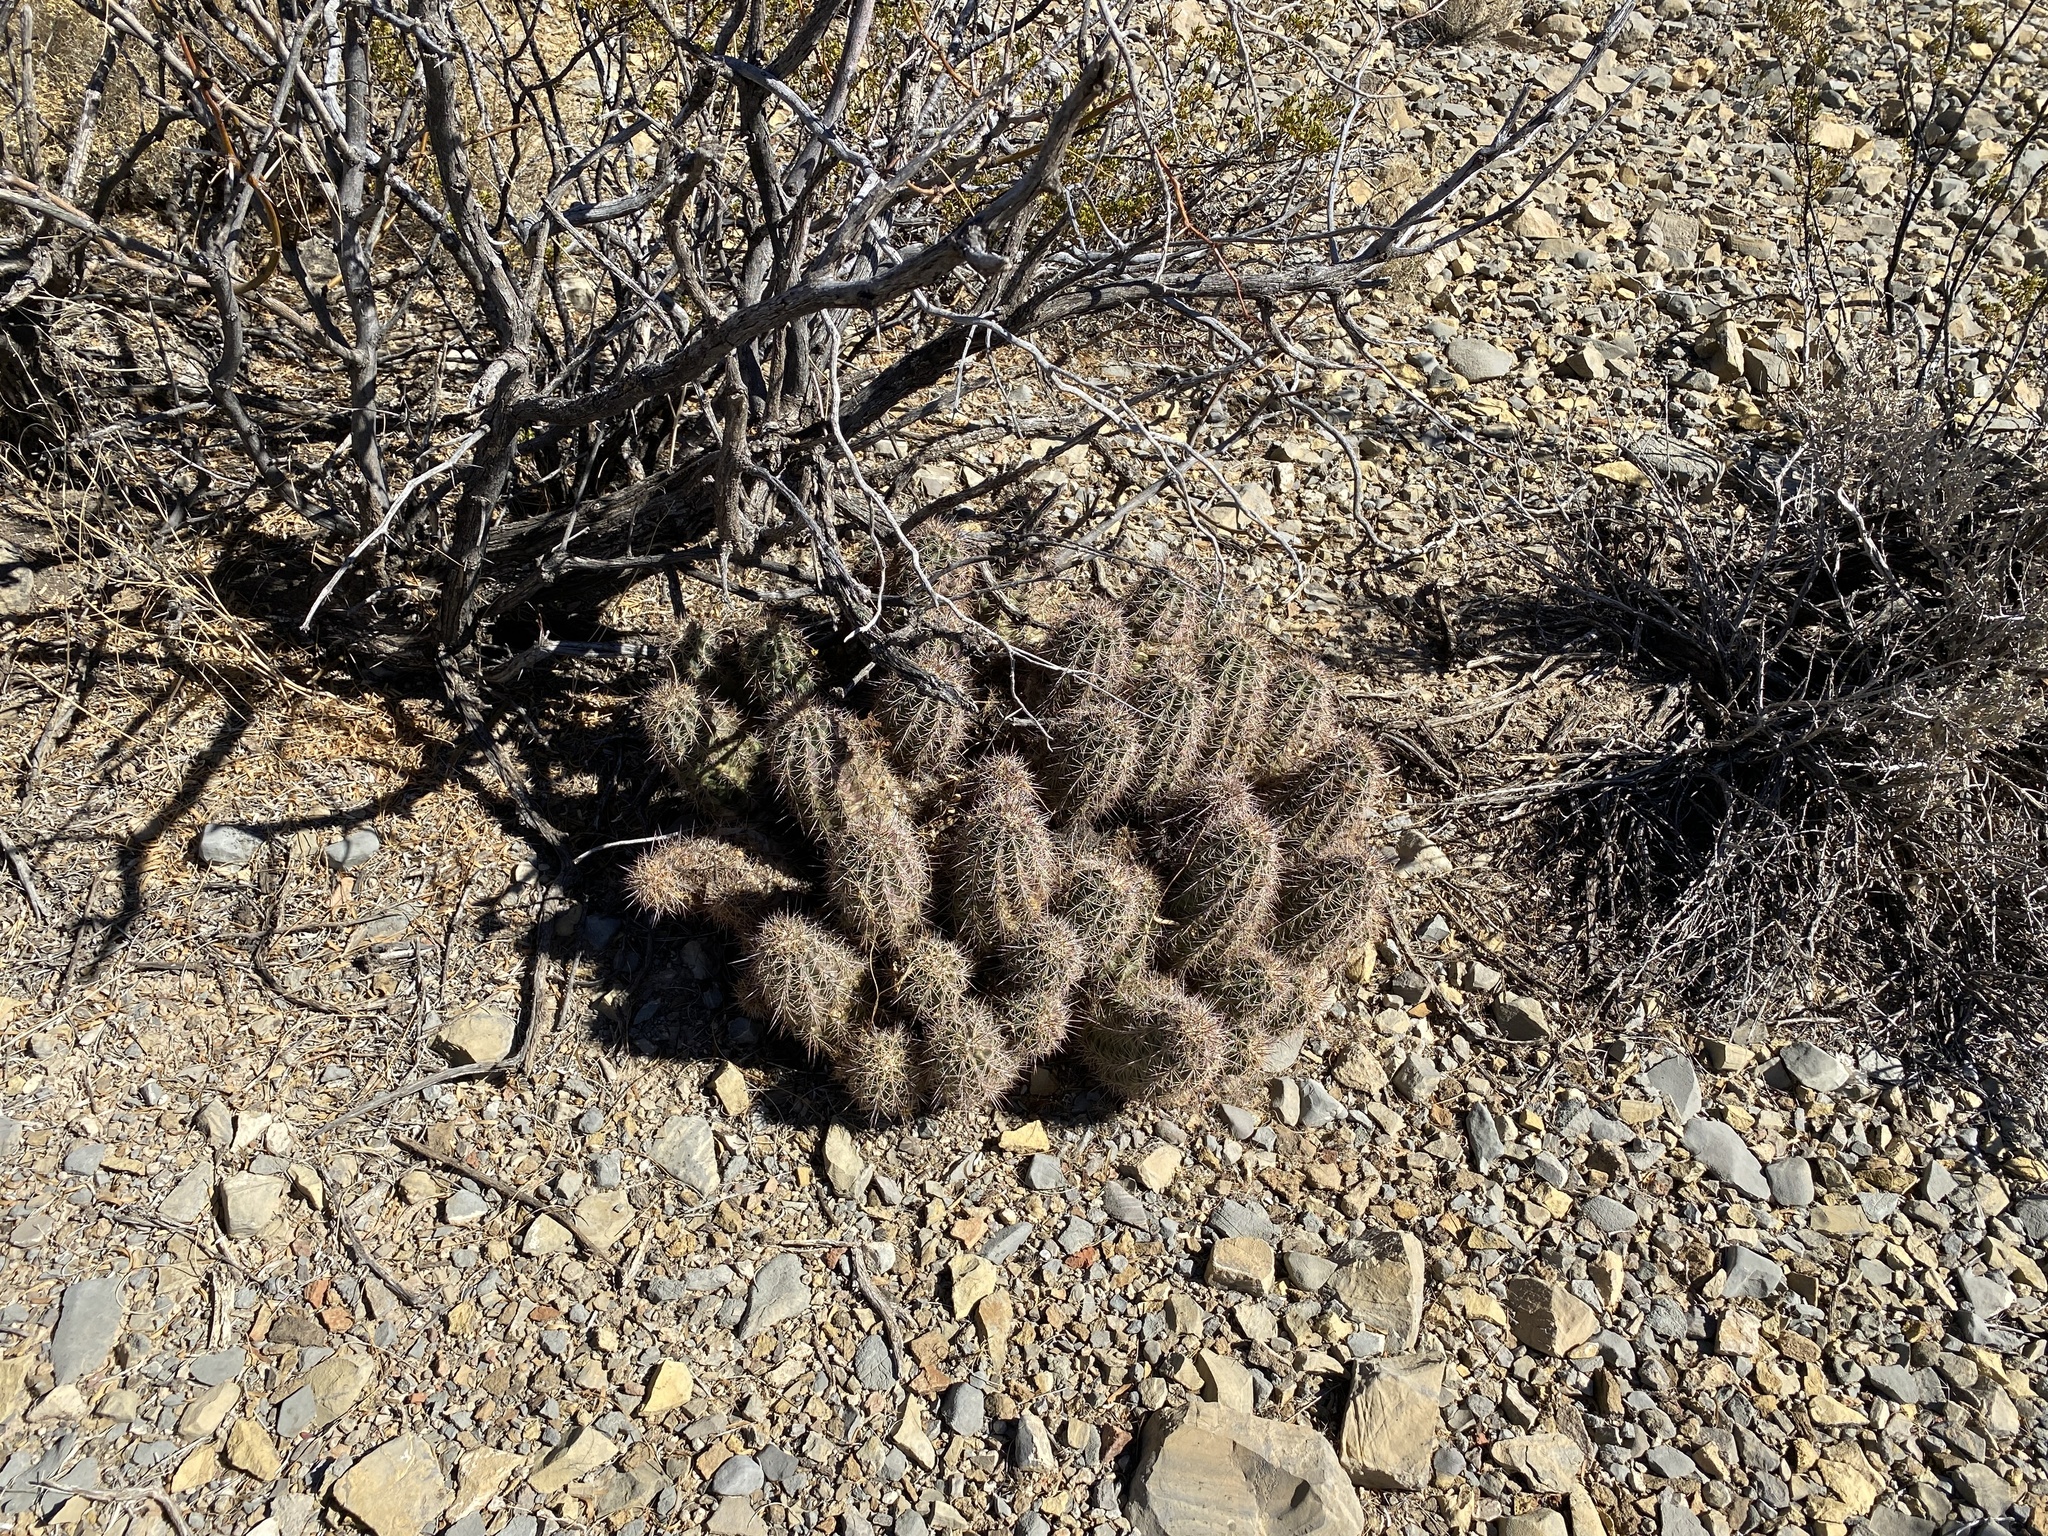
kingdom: Plantae
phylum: Tracheophyta
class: Magnoliopsida
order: Caryophyllales
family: Cactaceae
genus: Echinocereus
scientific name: Echinocereus coccineus
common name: Scarlet hedgehog cactus
